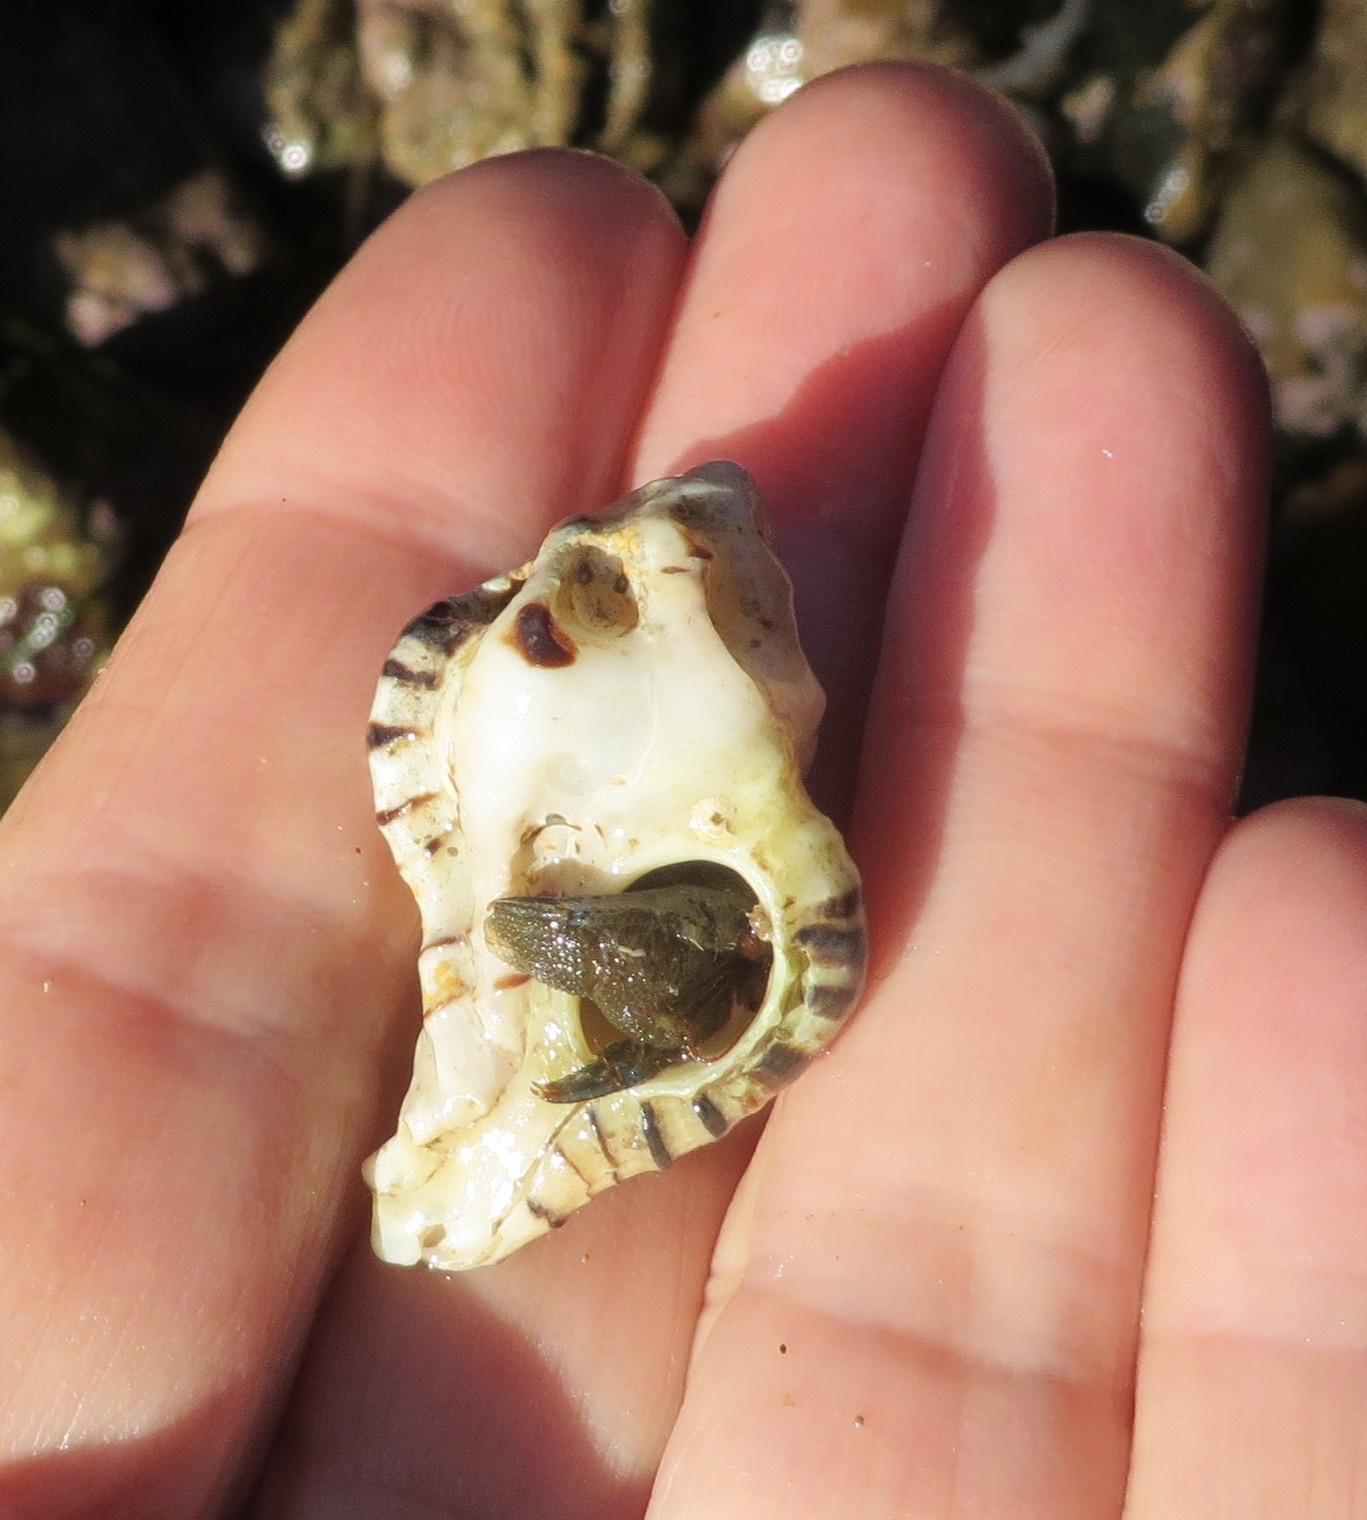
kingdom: Animalia
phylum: Arthropoda
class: Malacostraca
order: Decapoda
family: Paguridae
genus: Pagurus
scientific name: Pagurus samuelis
